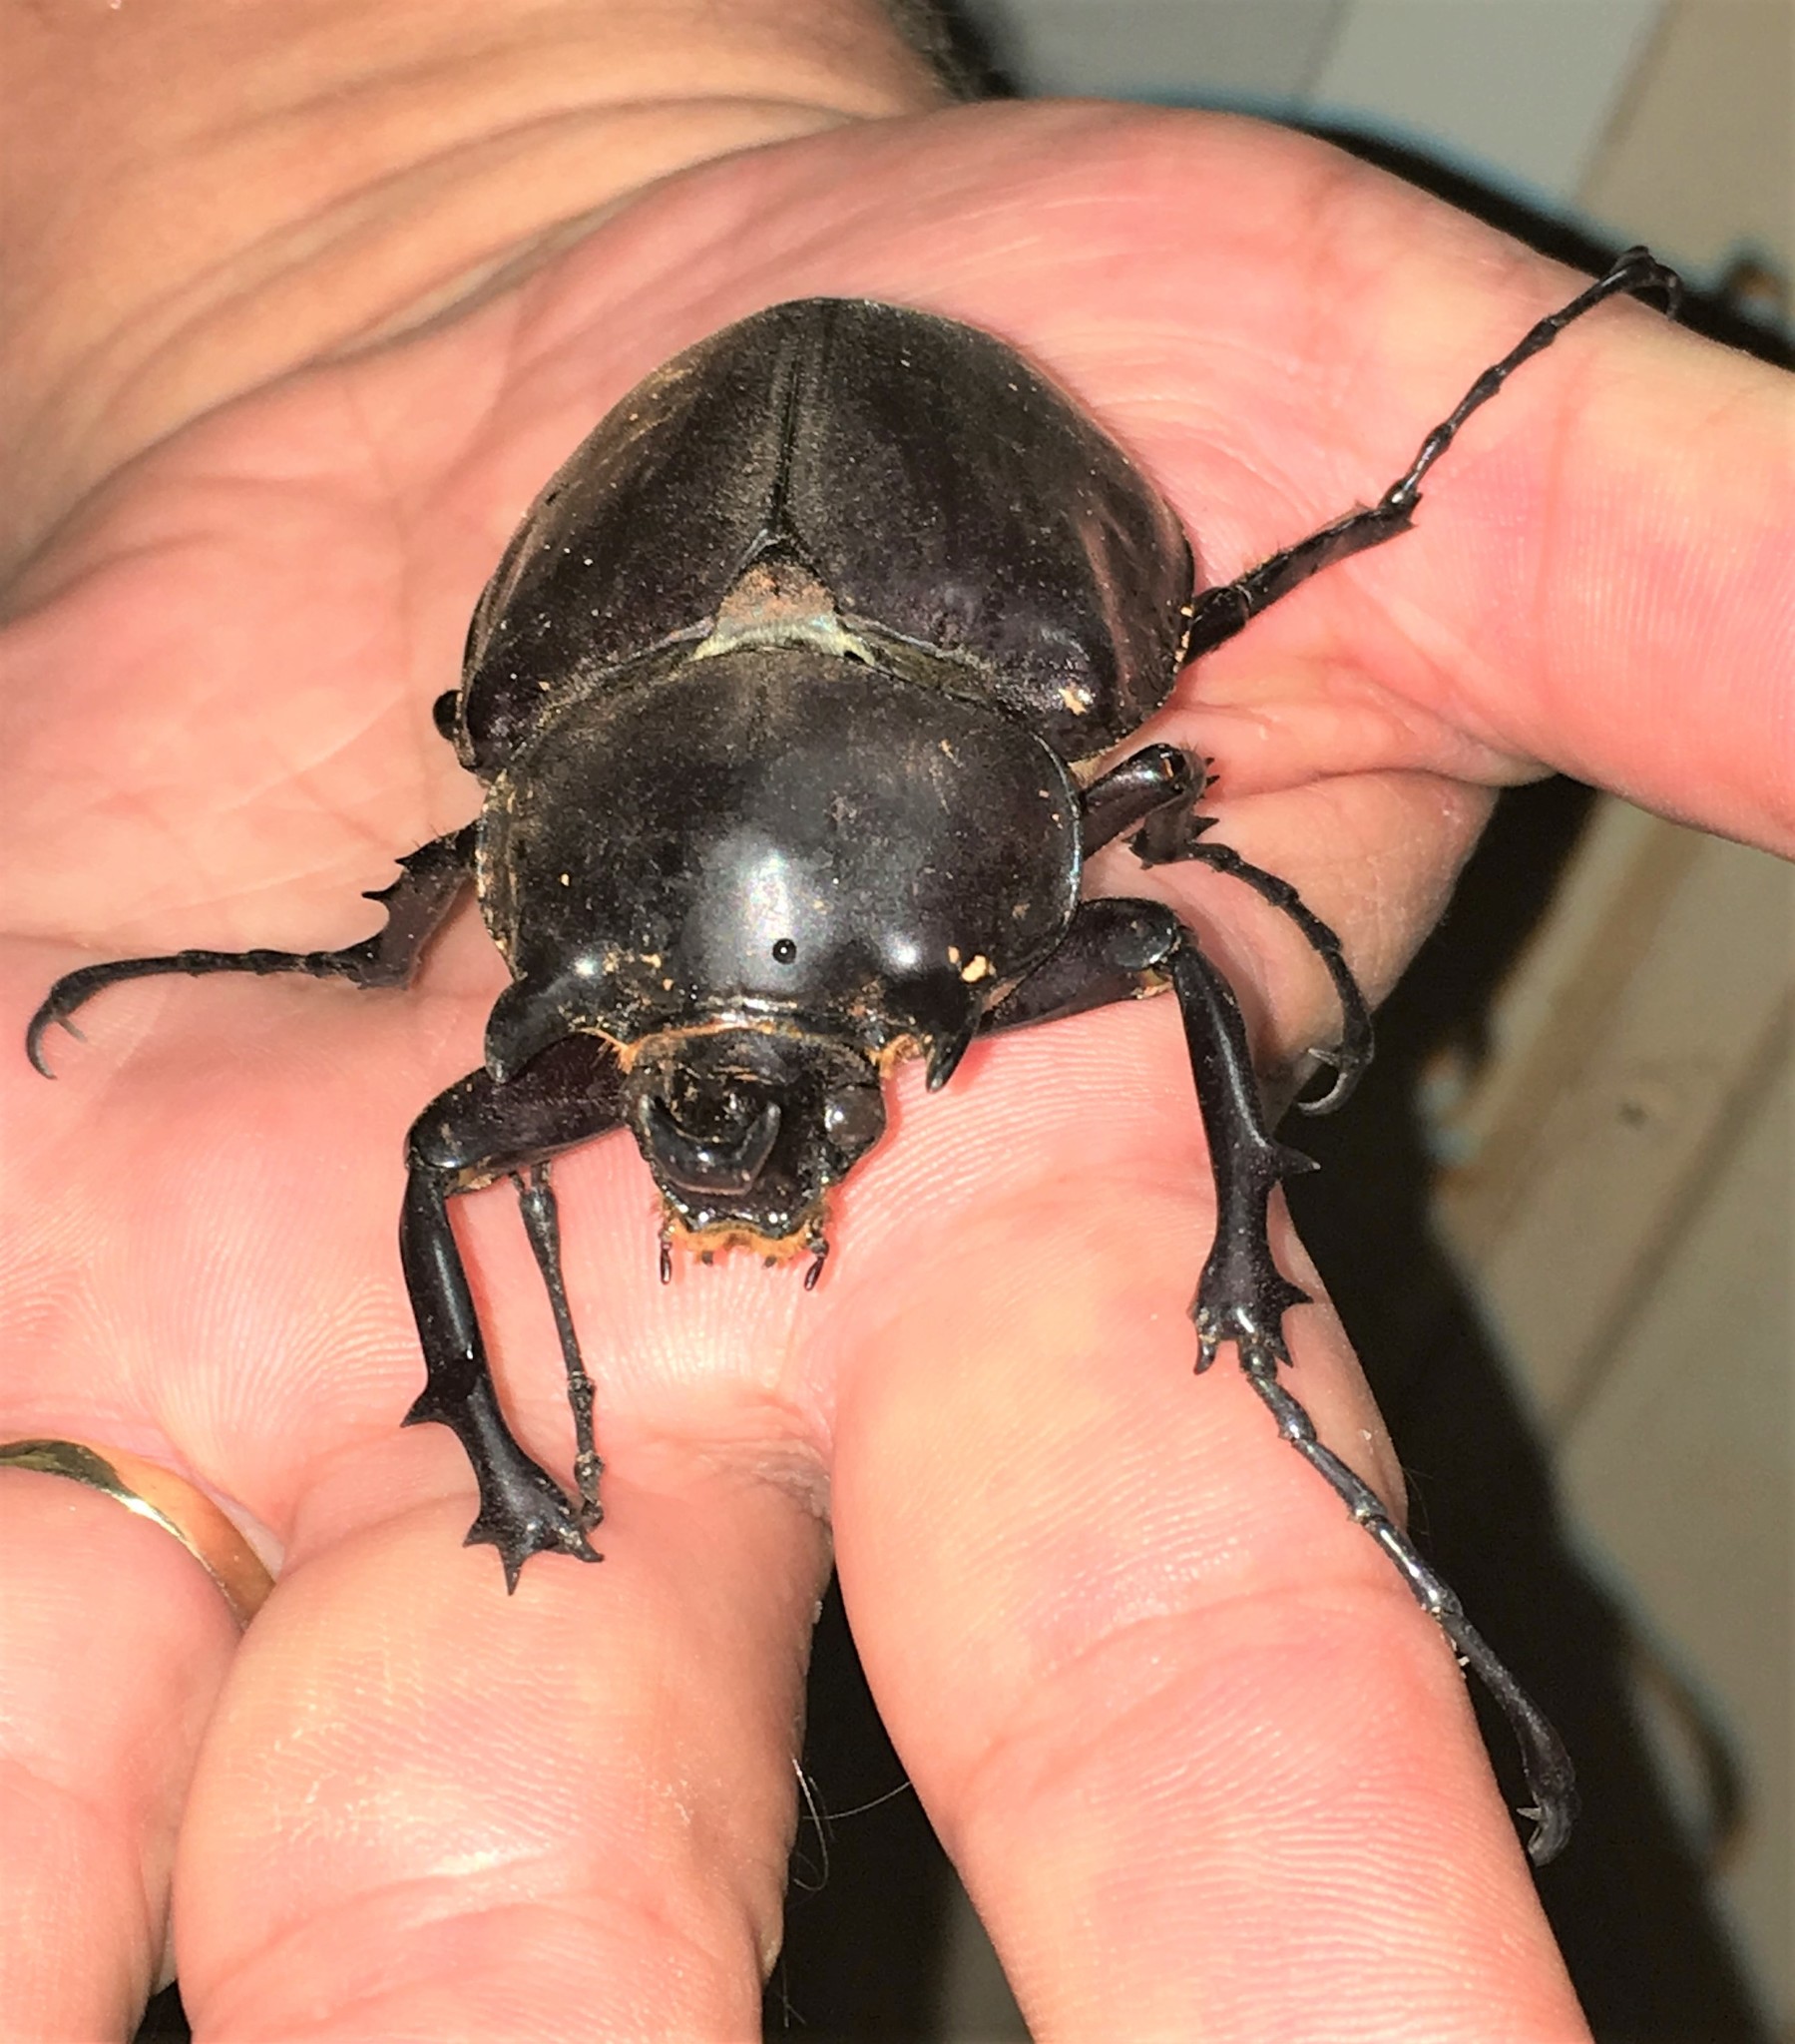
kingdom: Animalia
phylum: Arthropoda
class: Insecta
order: Coleoptera
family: Scarabaeidae
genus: Megasoma
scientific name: Megasoma actaeon
